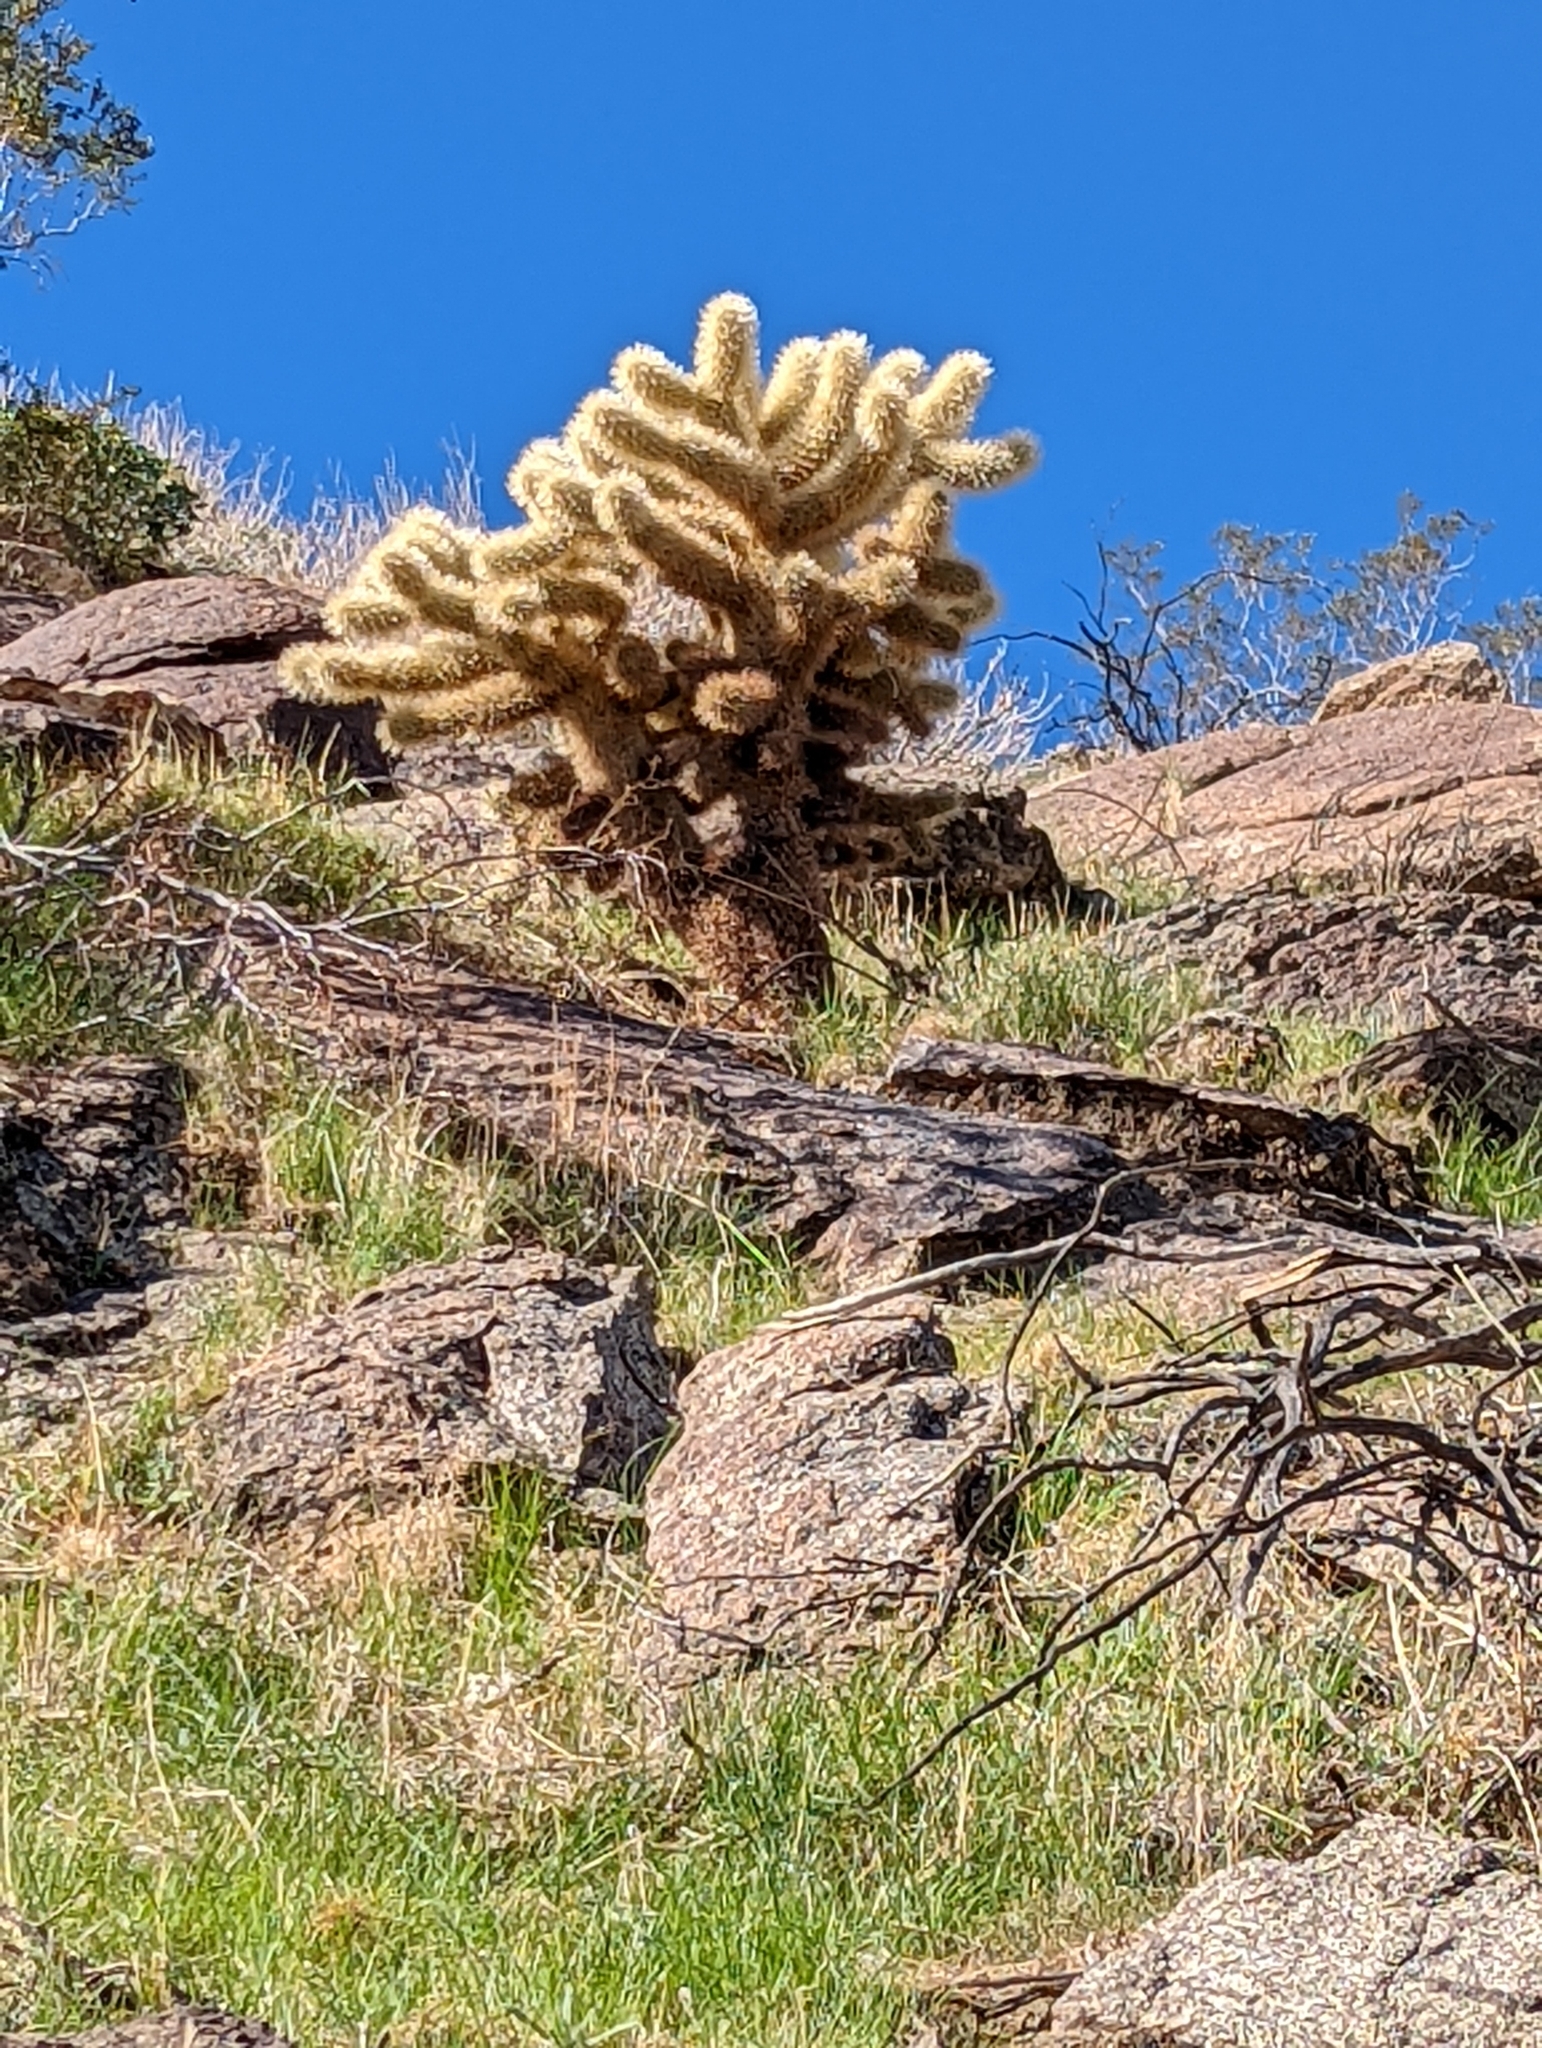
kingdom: Plantae
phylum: Tracheophyta
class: Magnoliopsida
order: Caryophyllales
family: Cactaceae
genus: Cylindropuntia
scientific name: Cylindropuntia fosbergii
